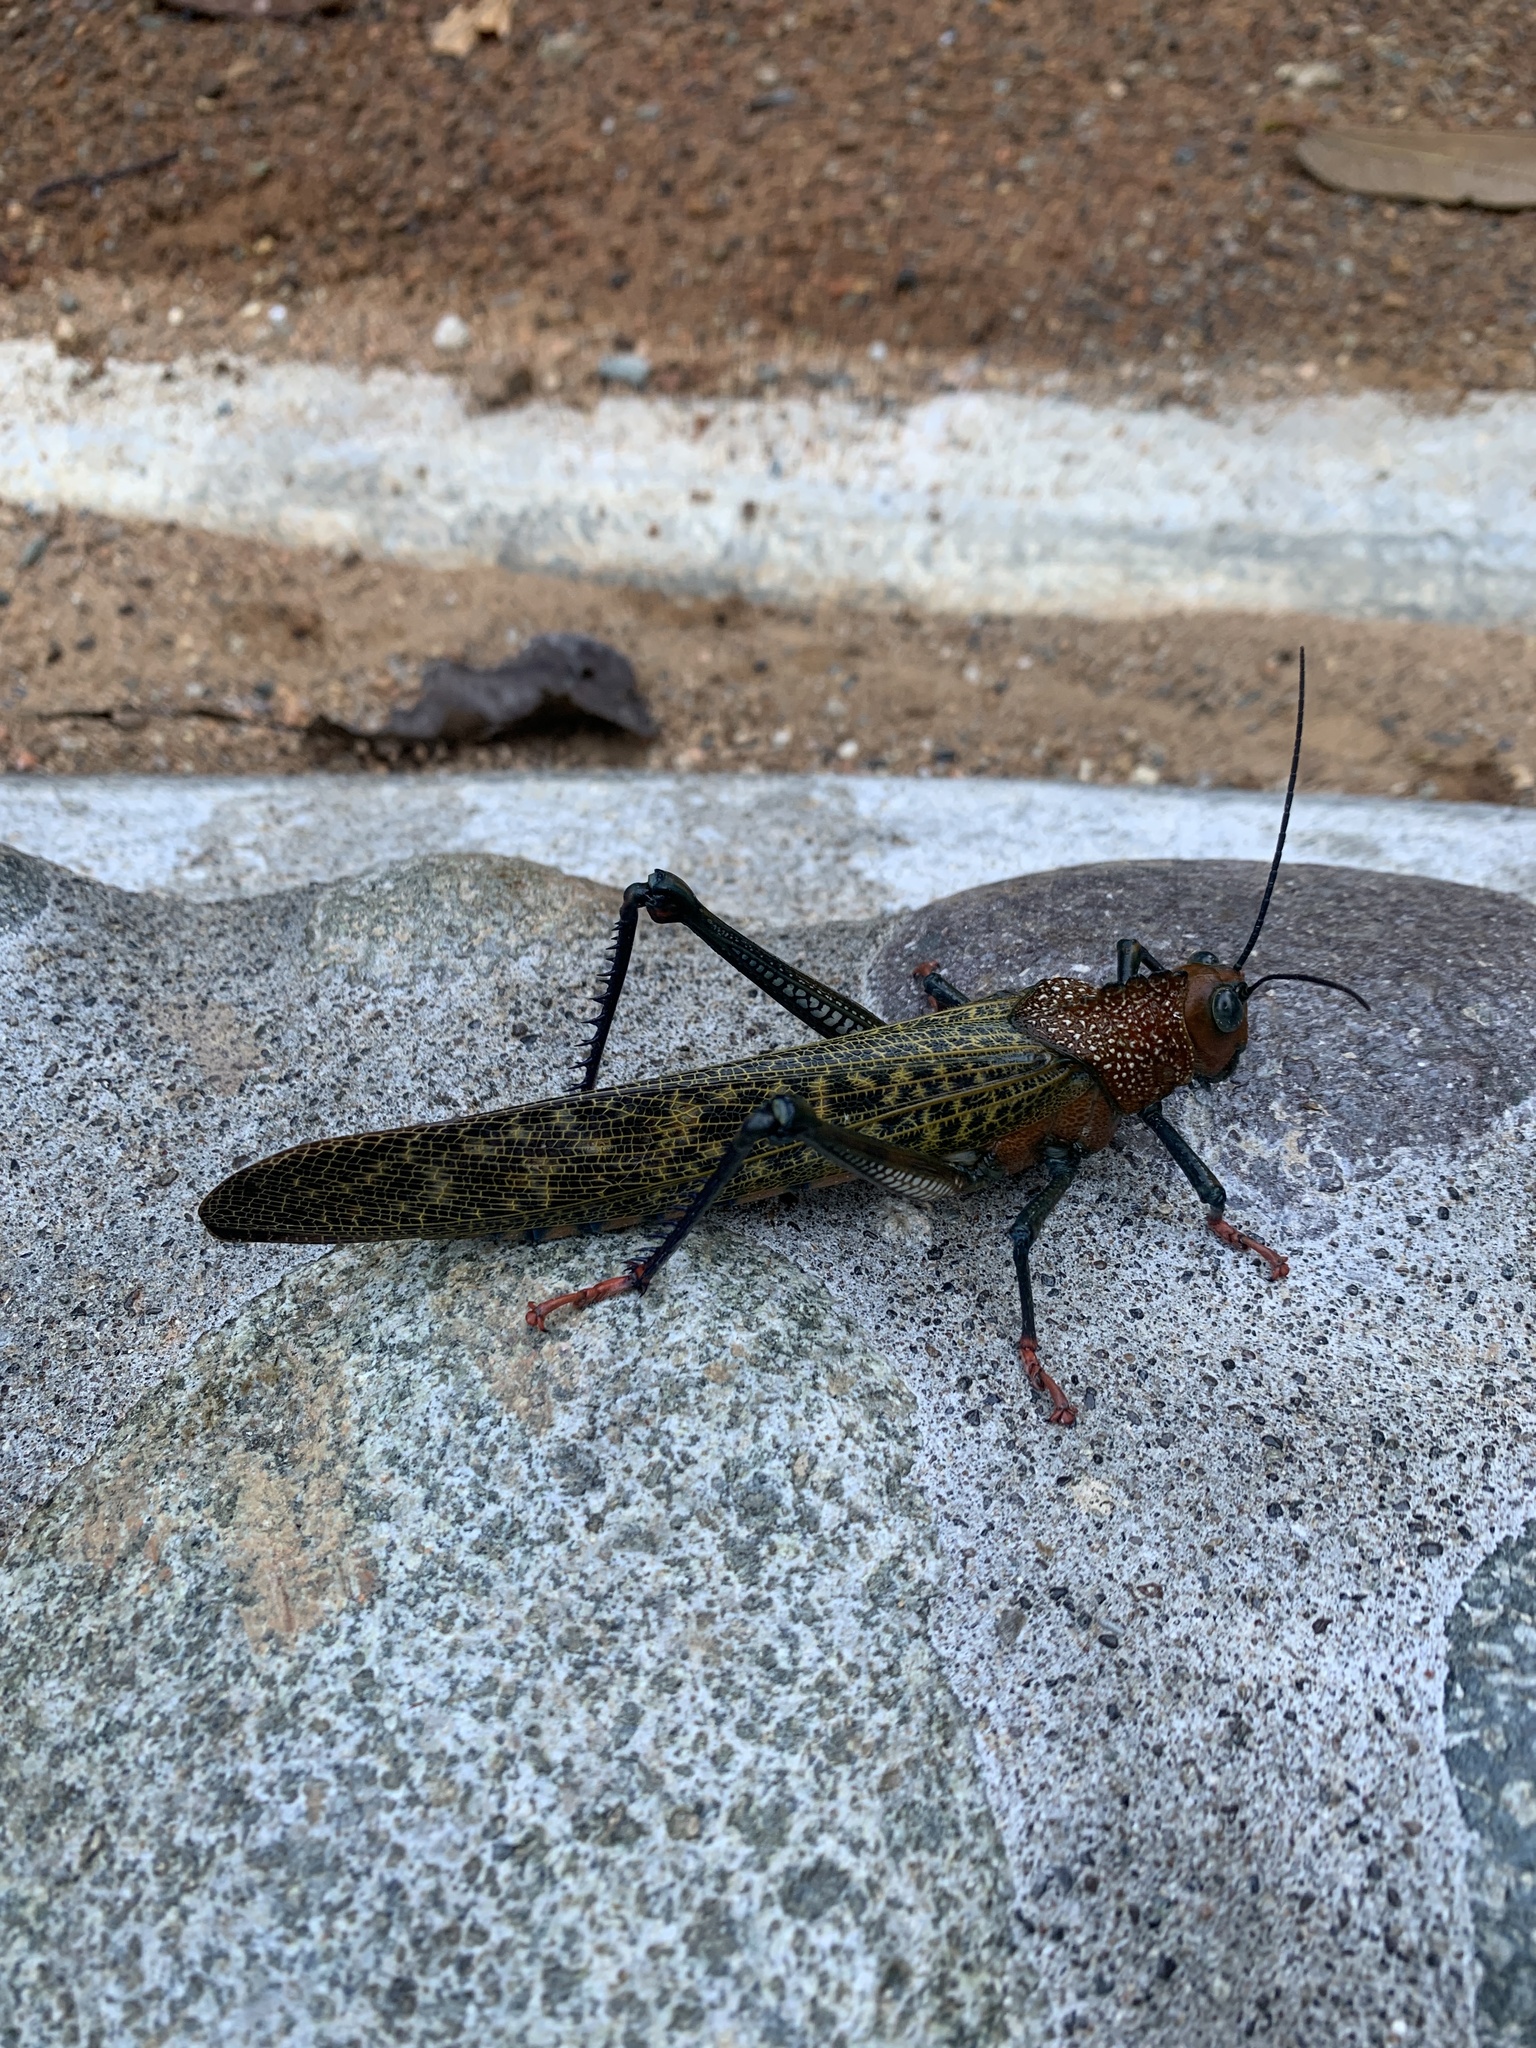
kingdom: Animalia
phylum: Arthropoda
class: Insecta
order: Orthoptera
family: Romaleidae
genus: Tropidacris
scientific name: Tropidacris cristata
